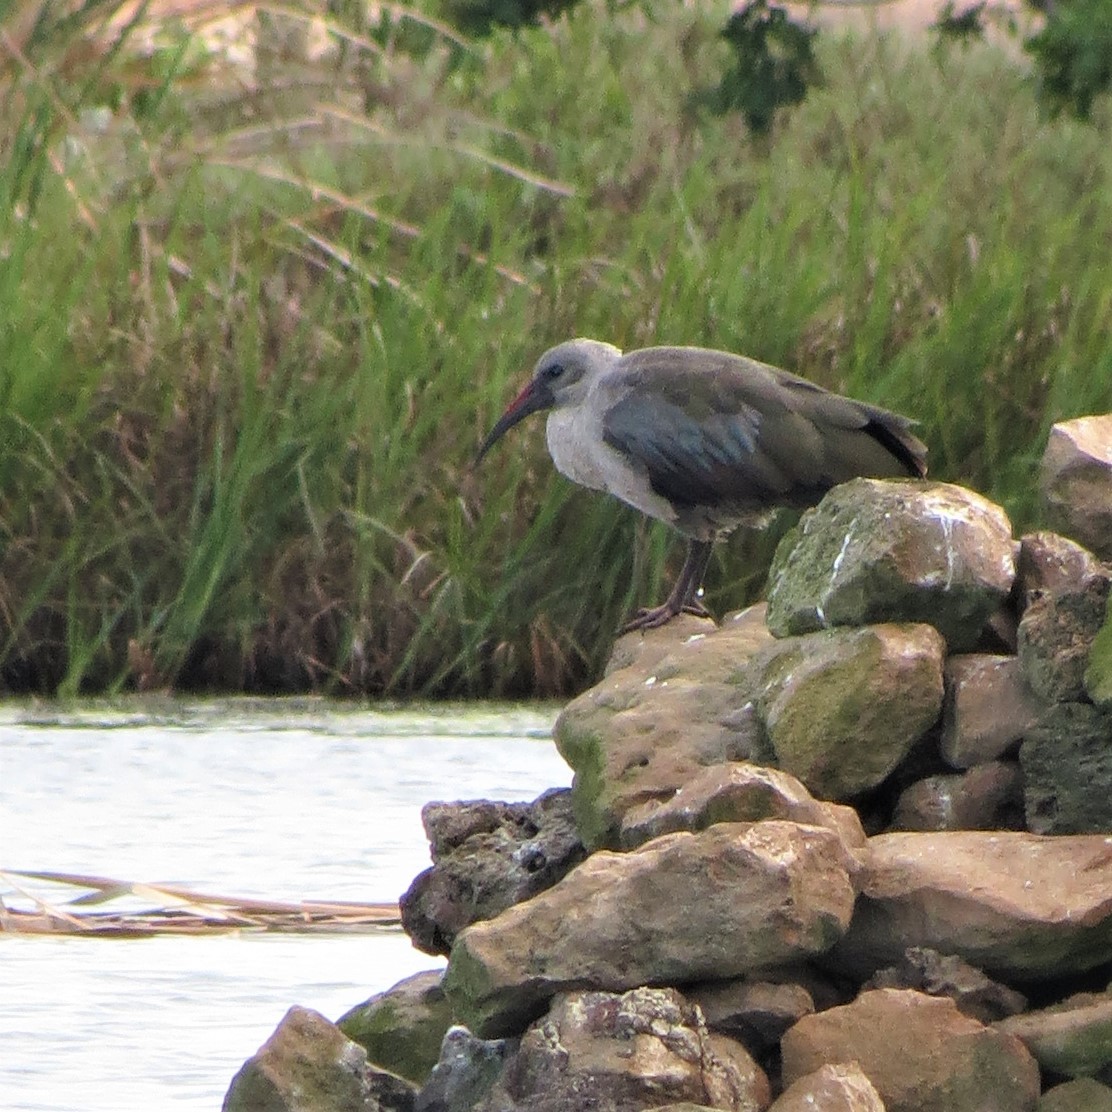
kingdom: Animalia
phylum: Chordata
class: Aves
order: Pelecaniformes
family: Threskiornithidae
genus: Bostrychia
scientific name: Bostrychia hagedash
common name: Hadada ibis
